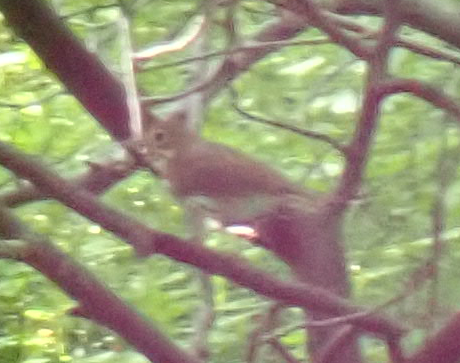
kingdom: Animalia
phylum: Chordata
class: Aves
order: Passeriformes
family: Parulidae
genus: Seiurus
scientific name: Seiurus aurocapilla
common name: Ovenbird
